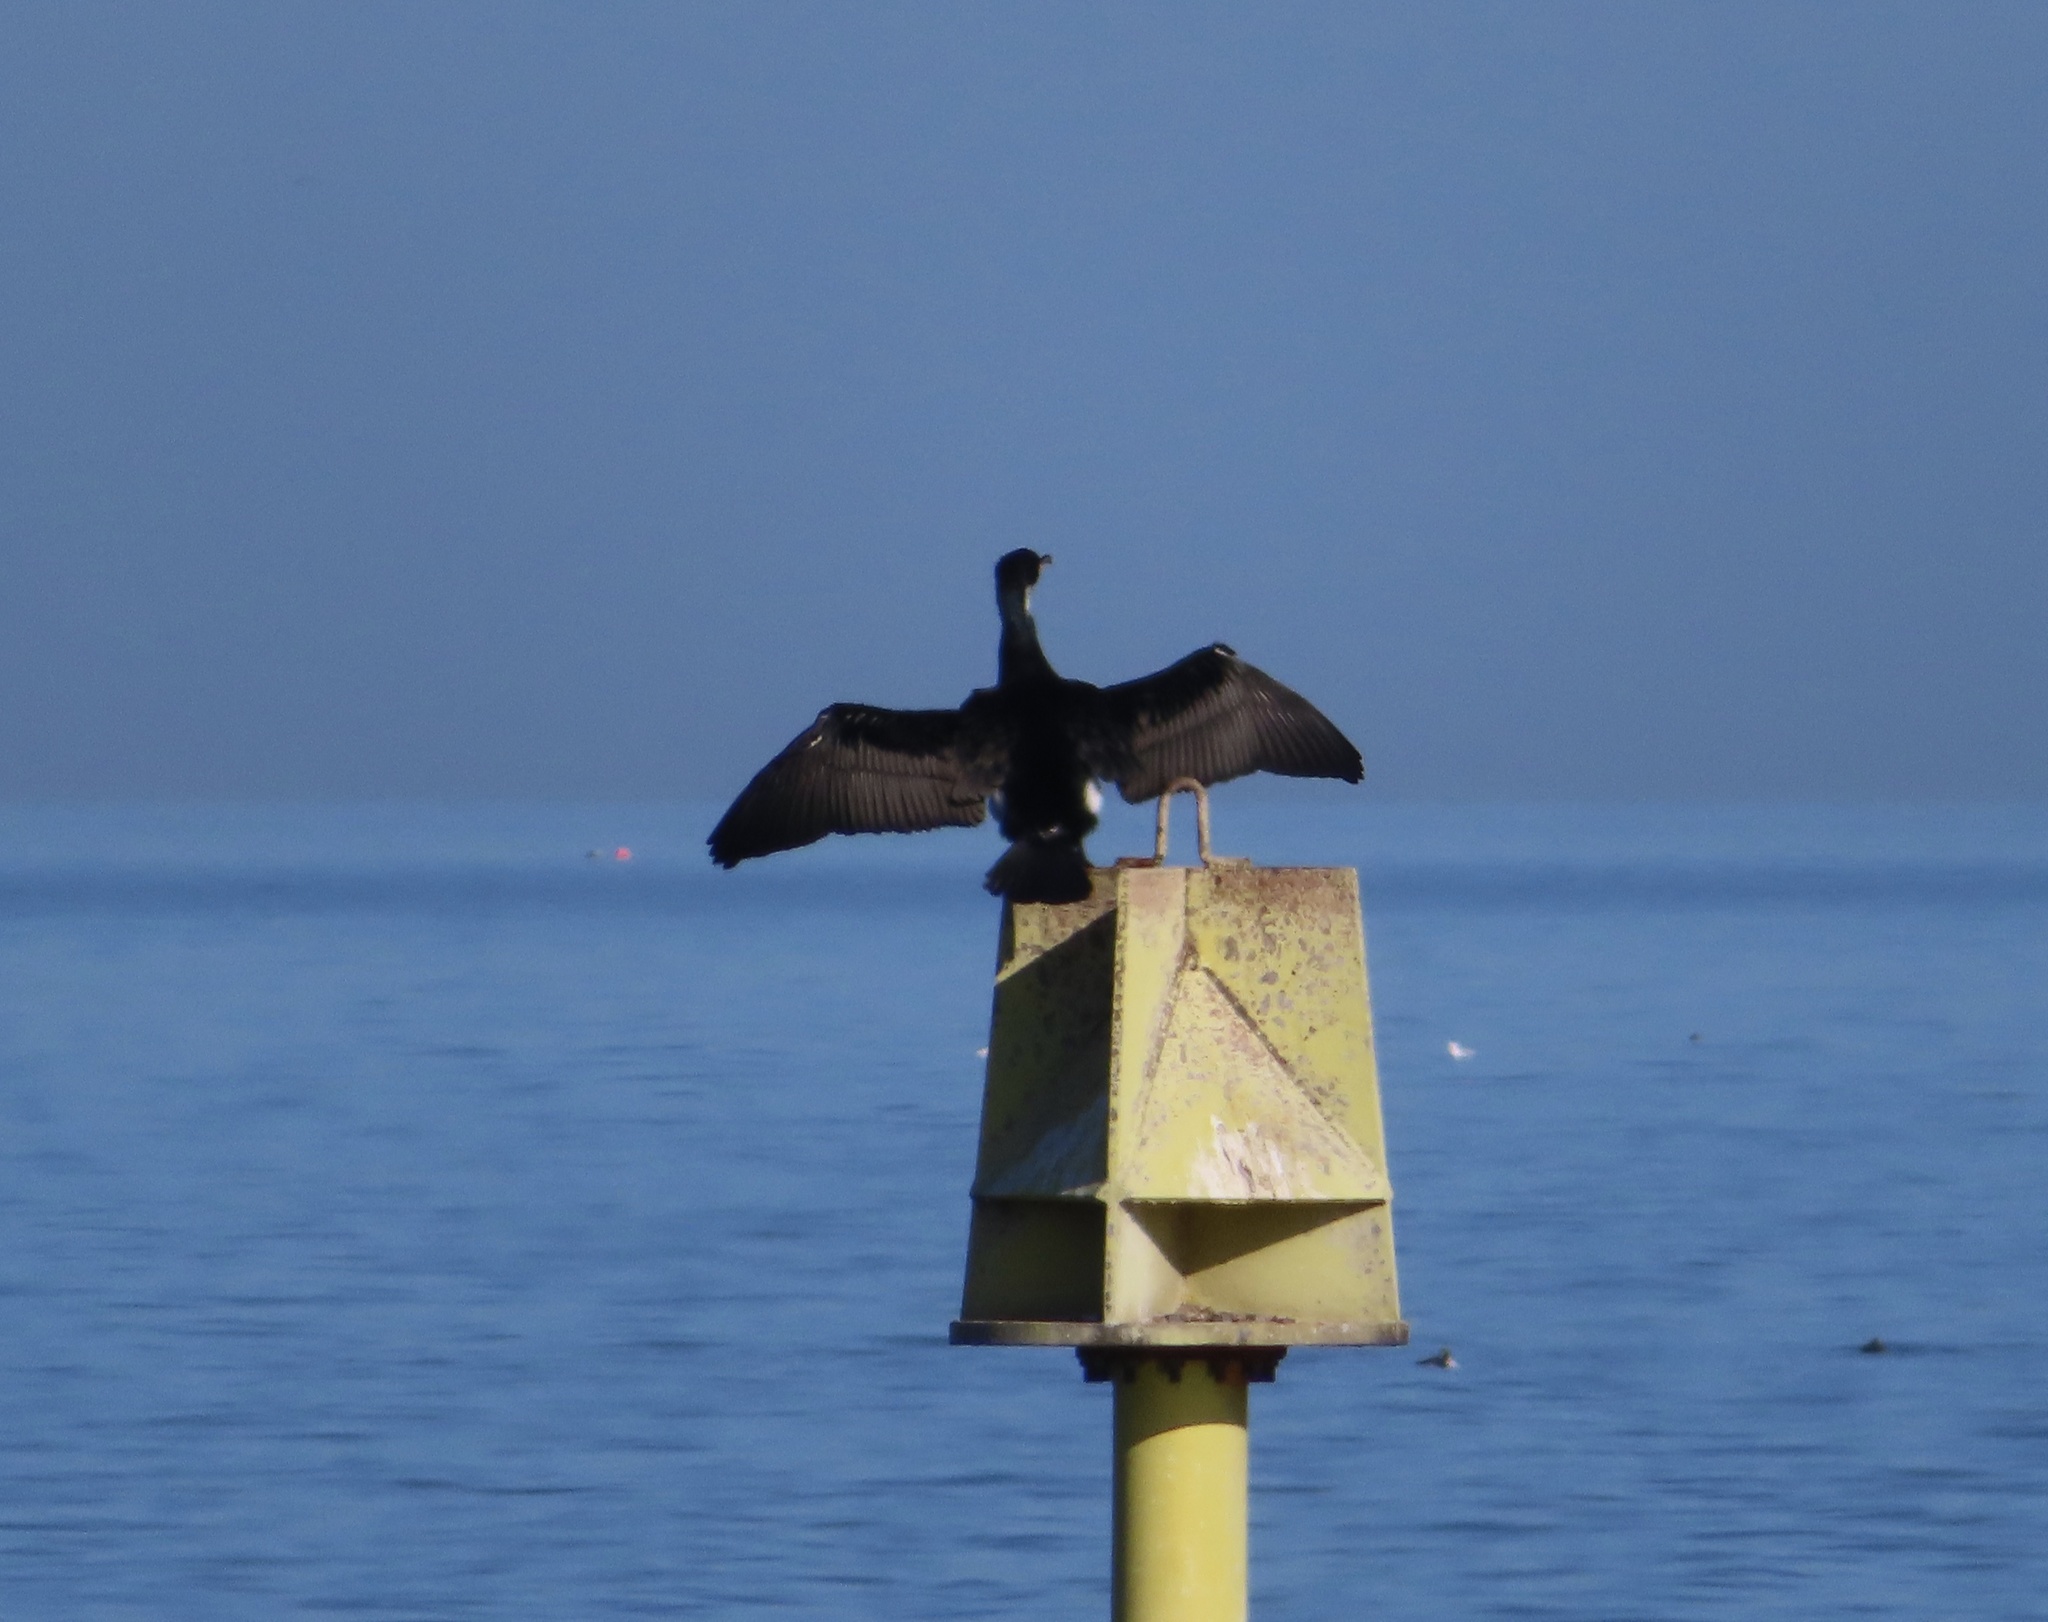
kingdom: Animalia
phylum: Chordata
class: Aves
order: Suliformes
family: Phalacrocoracidae
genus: Phalacrocorax
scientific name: Phalacrocorax carbo
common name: Great cormorant
